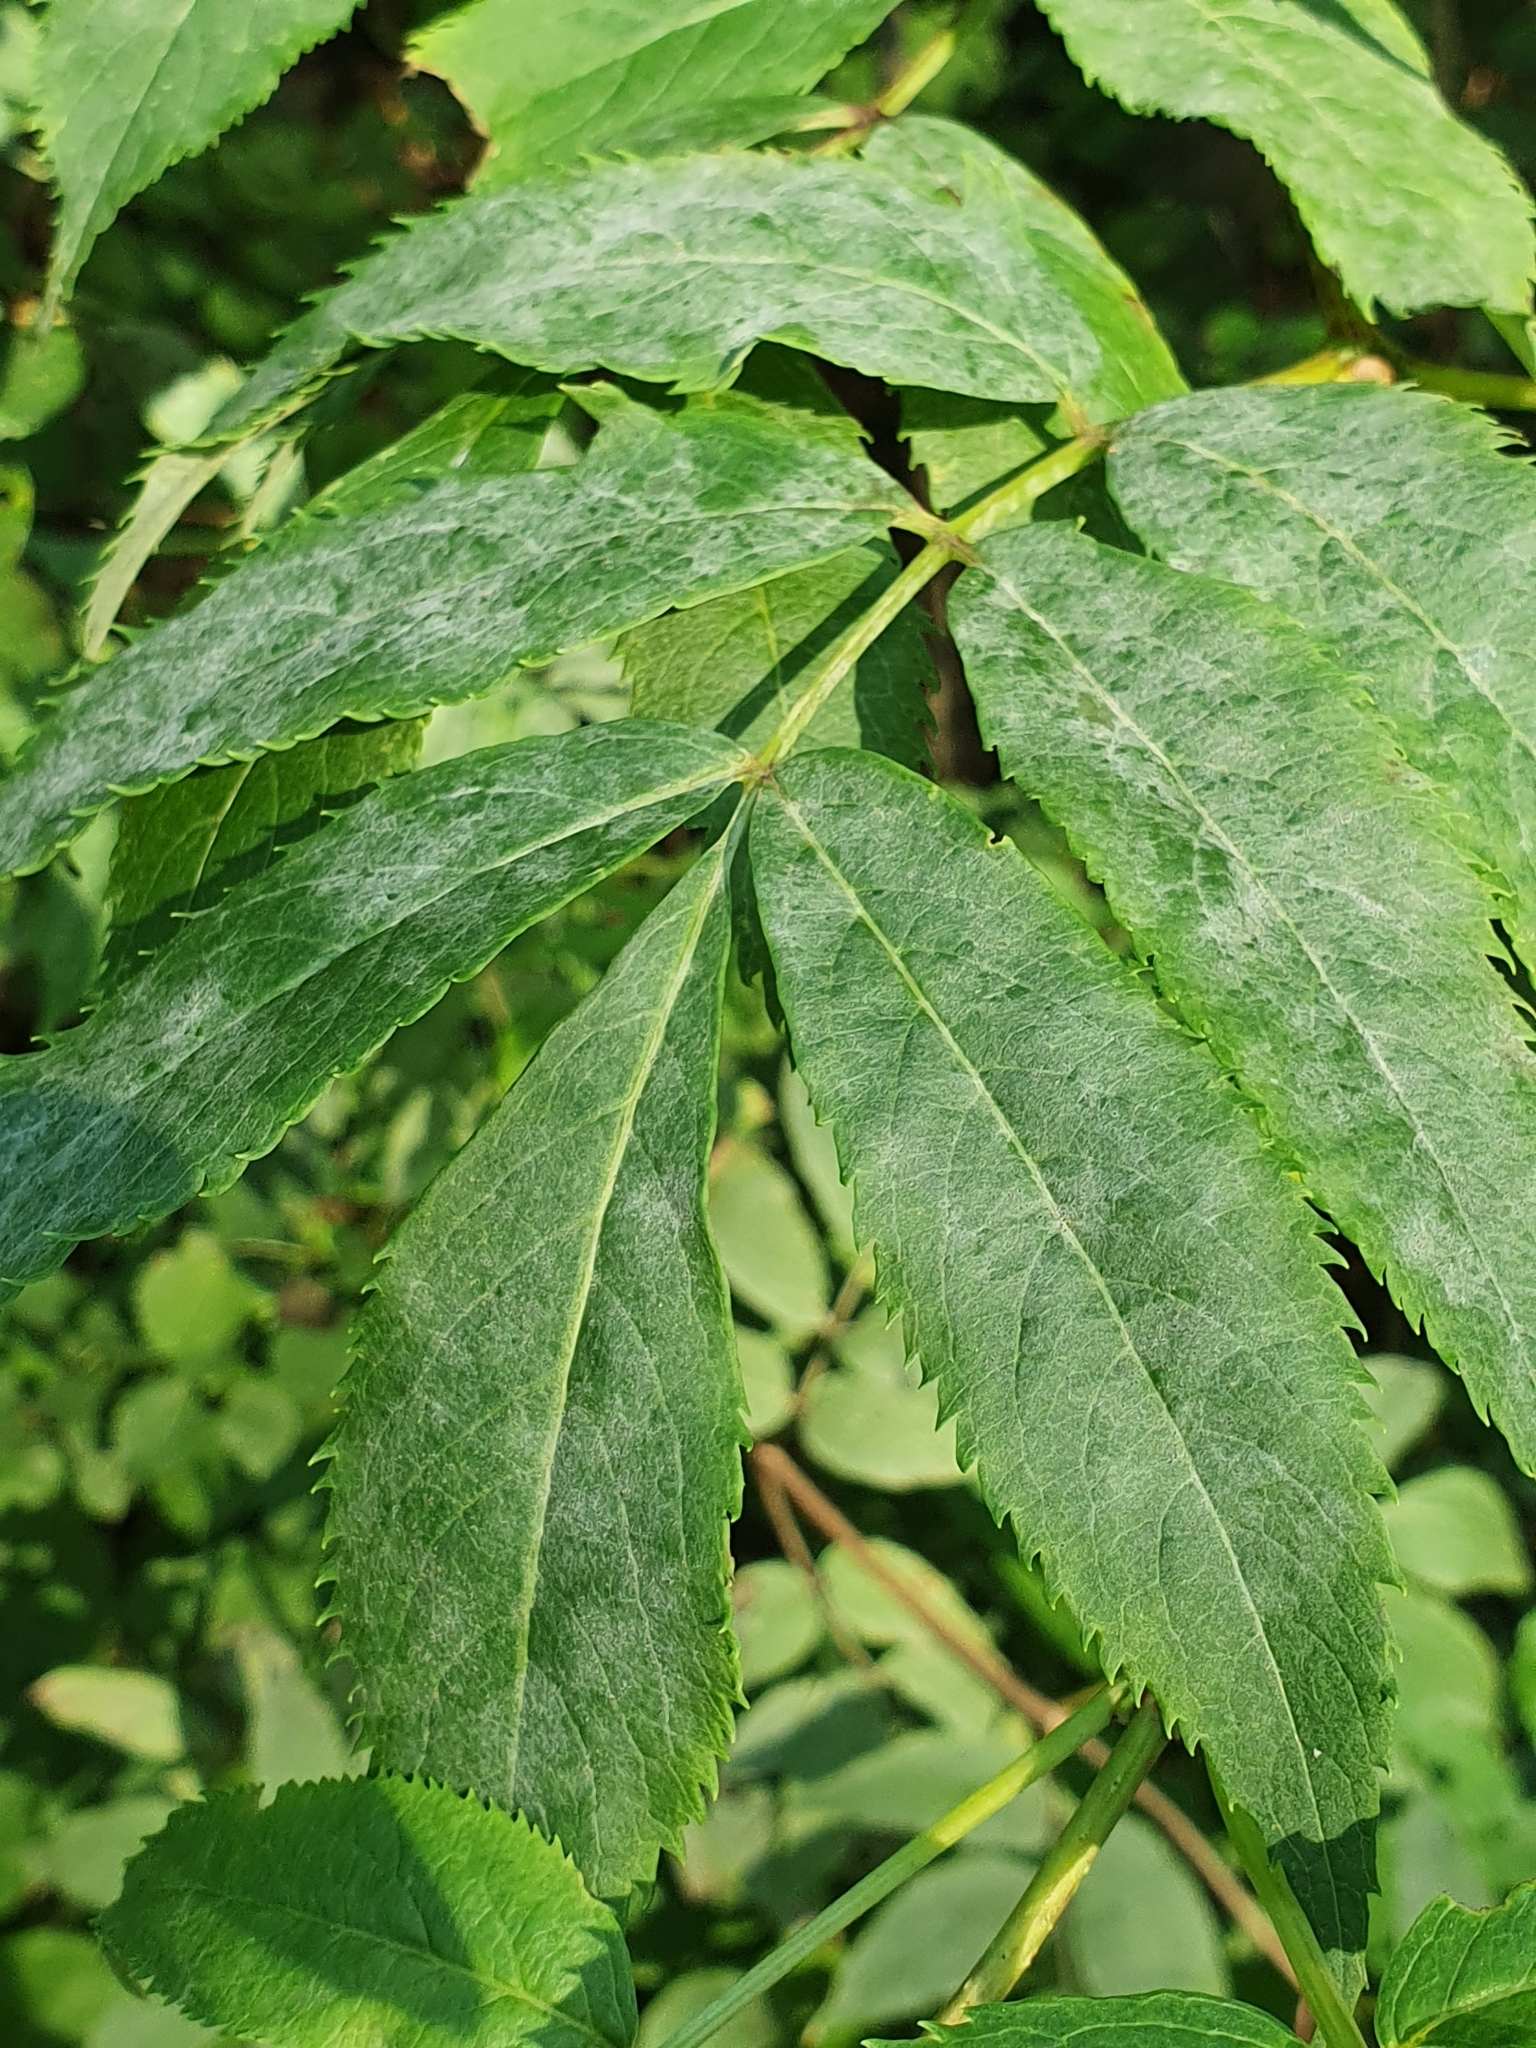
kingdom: Fungi
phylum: Ascomycota
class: Leotiomycetes
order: Helotiales
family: Erysiphaceae
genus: Erysiphe
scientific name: Erysiphe sambuci
